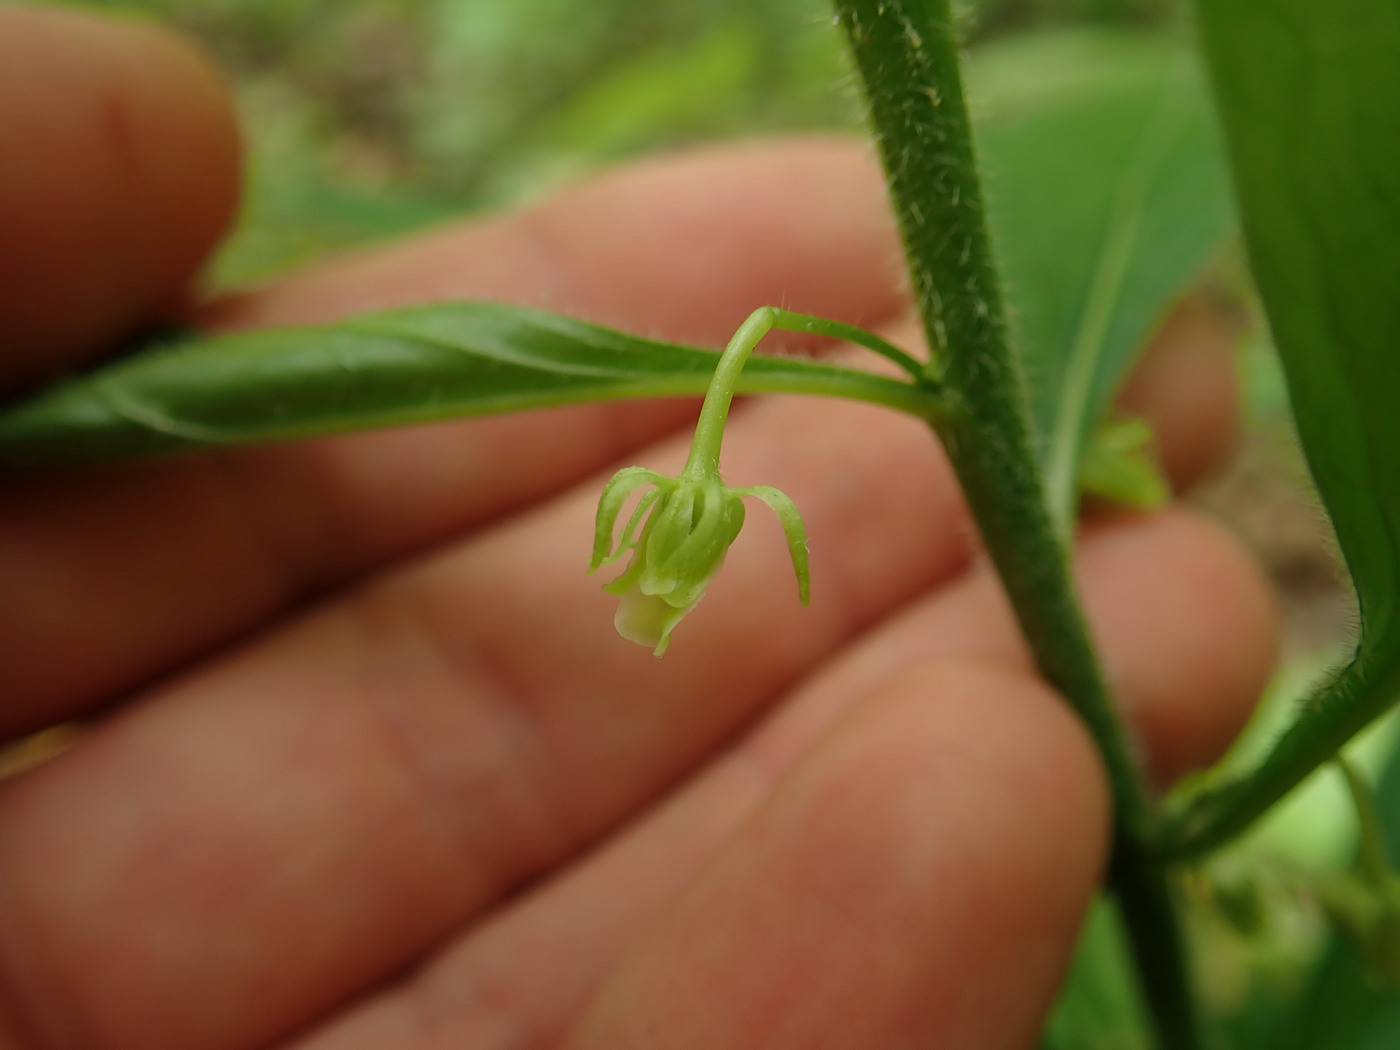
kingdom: Plantae
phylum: Tracheophyta
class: Magnoliopsida
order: Malpighiales
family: Violaceae
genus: Cubelium
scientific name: Cubelium concolor
